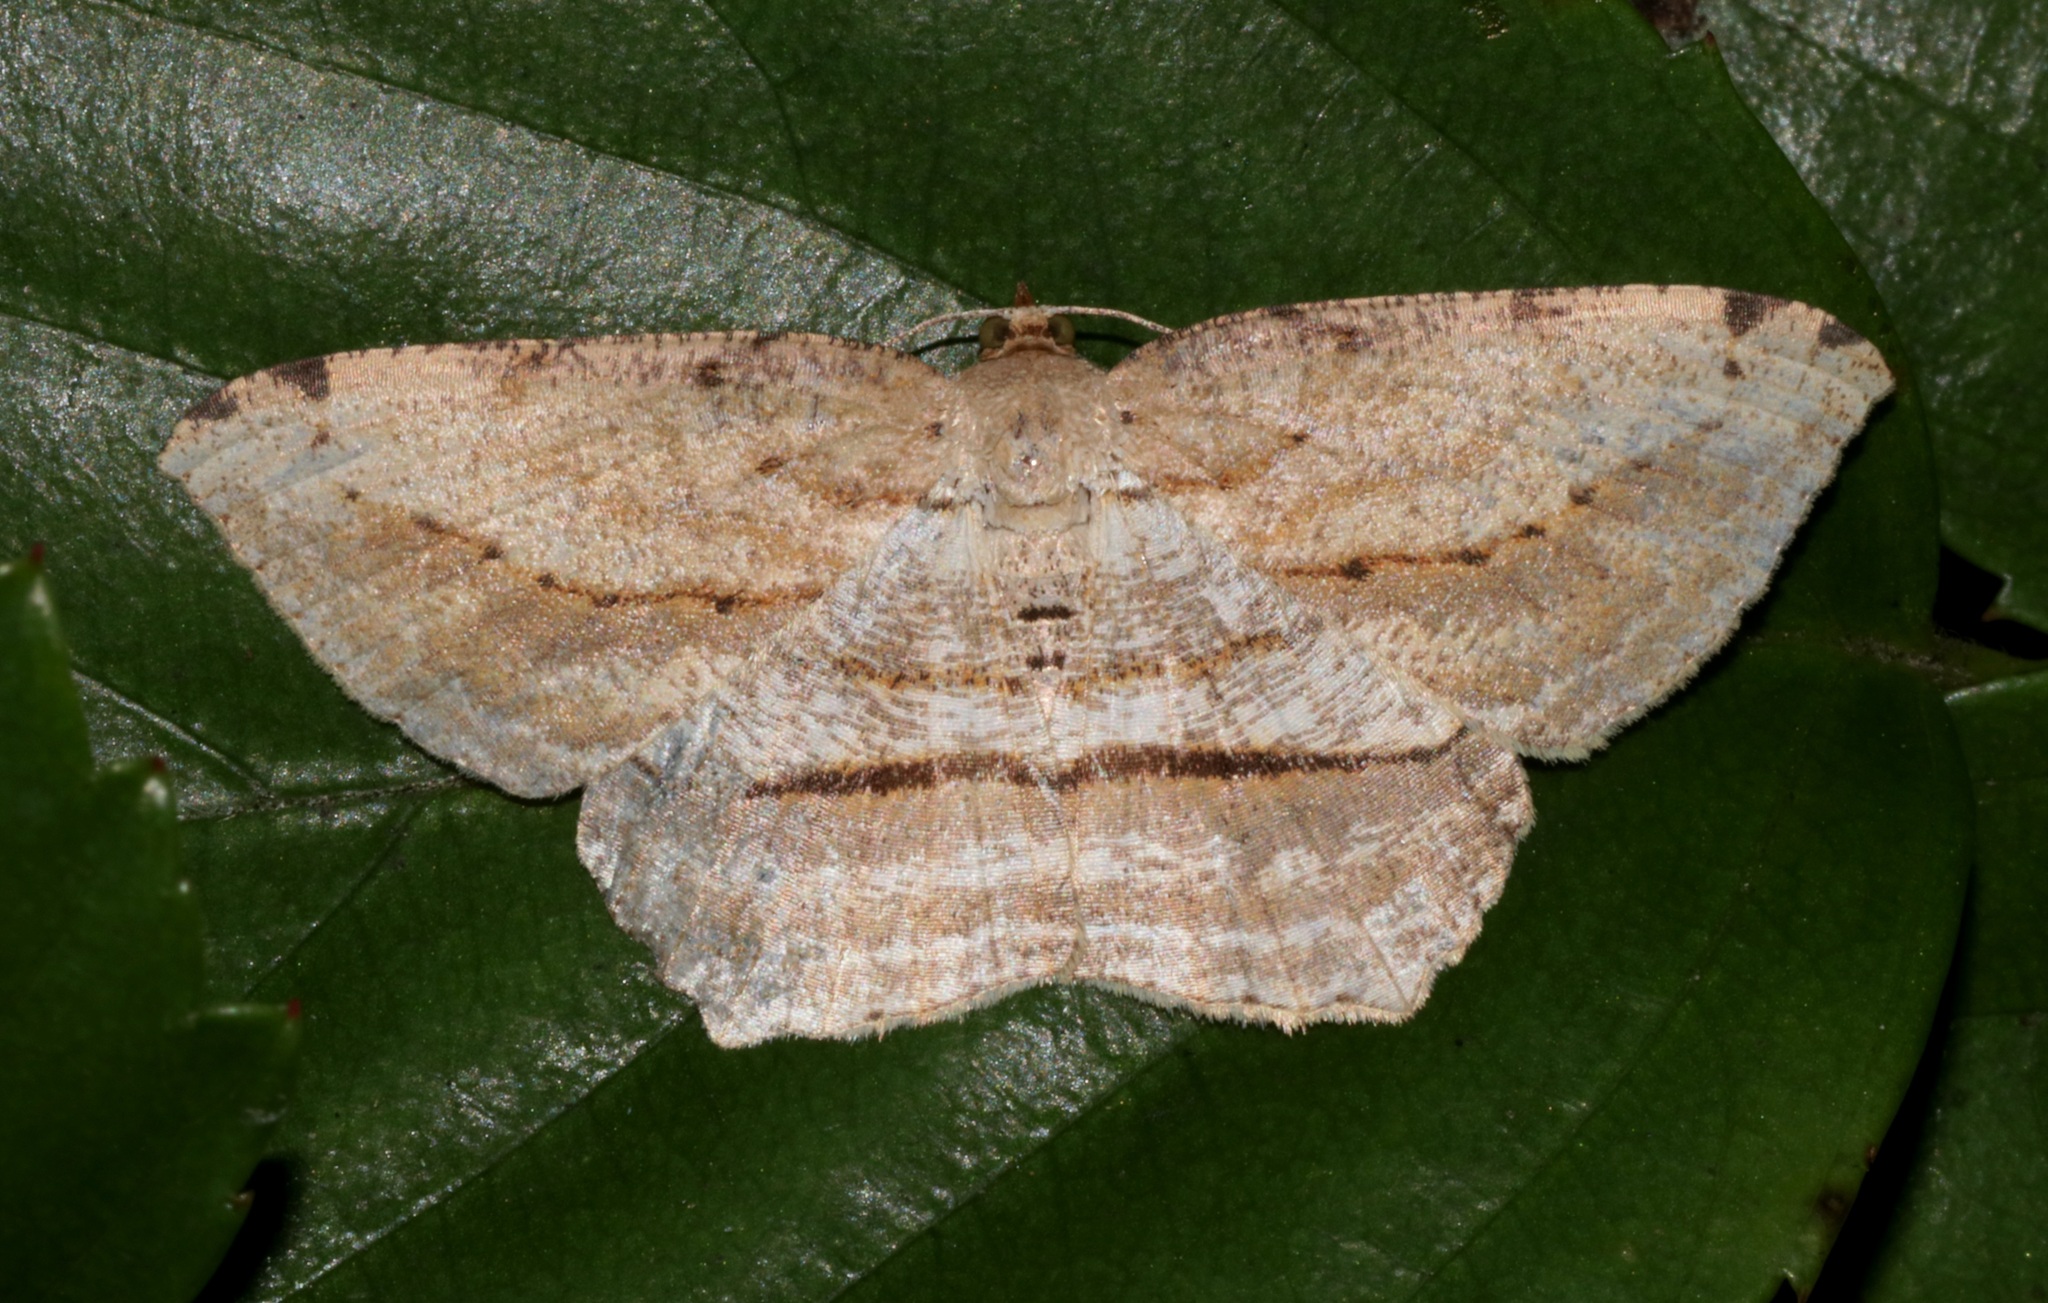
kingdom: Animalia
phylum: Arthropoda
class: Insecta
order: Lepidoptera
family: Geometridae
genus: Calletaera
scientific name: Calletaera dentata
